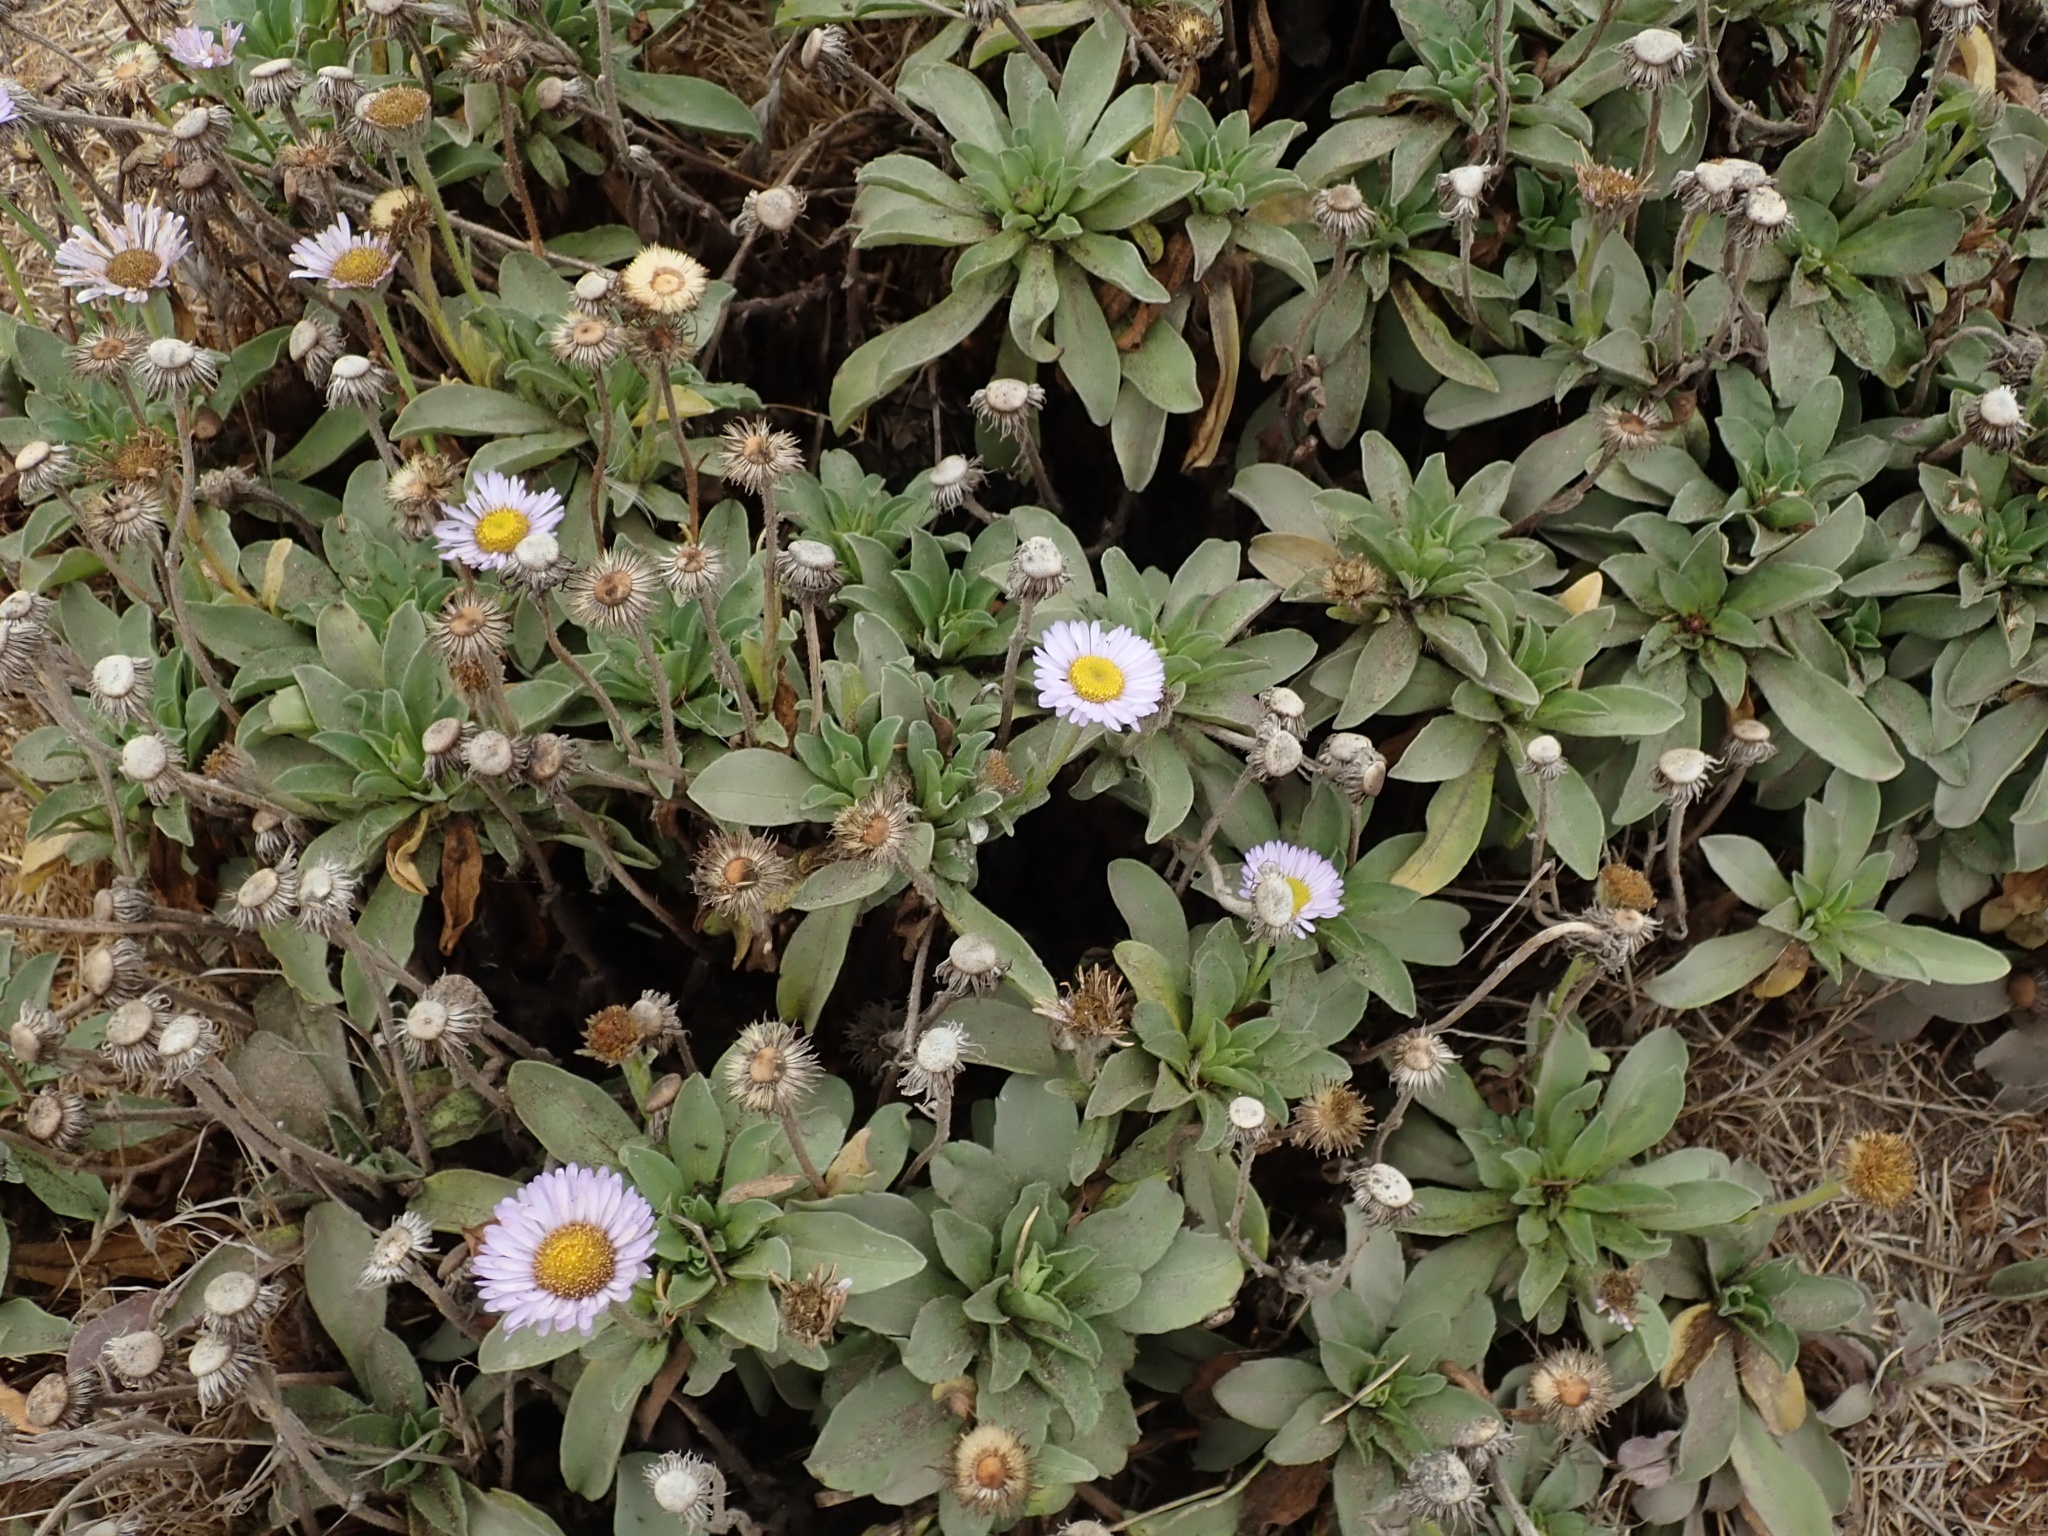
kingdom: Plantae
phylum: Tracheophyta
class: Magnoliopsida
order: Asterales
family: Asteraceae
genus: Erigeron
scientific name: Erigeron glaucus
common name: Seaside daisy
